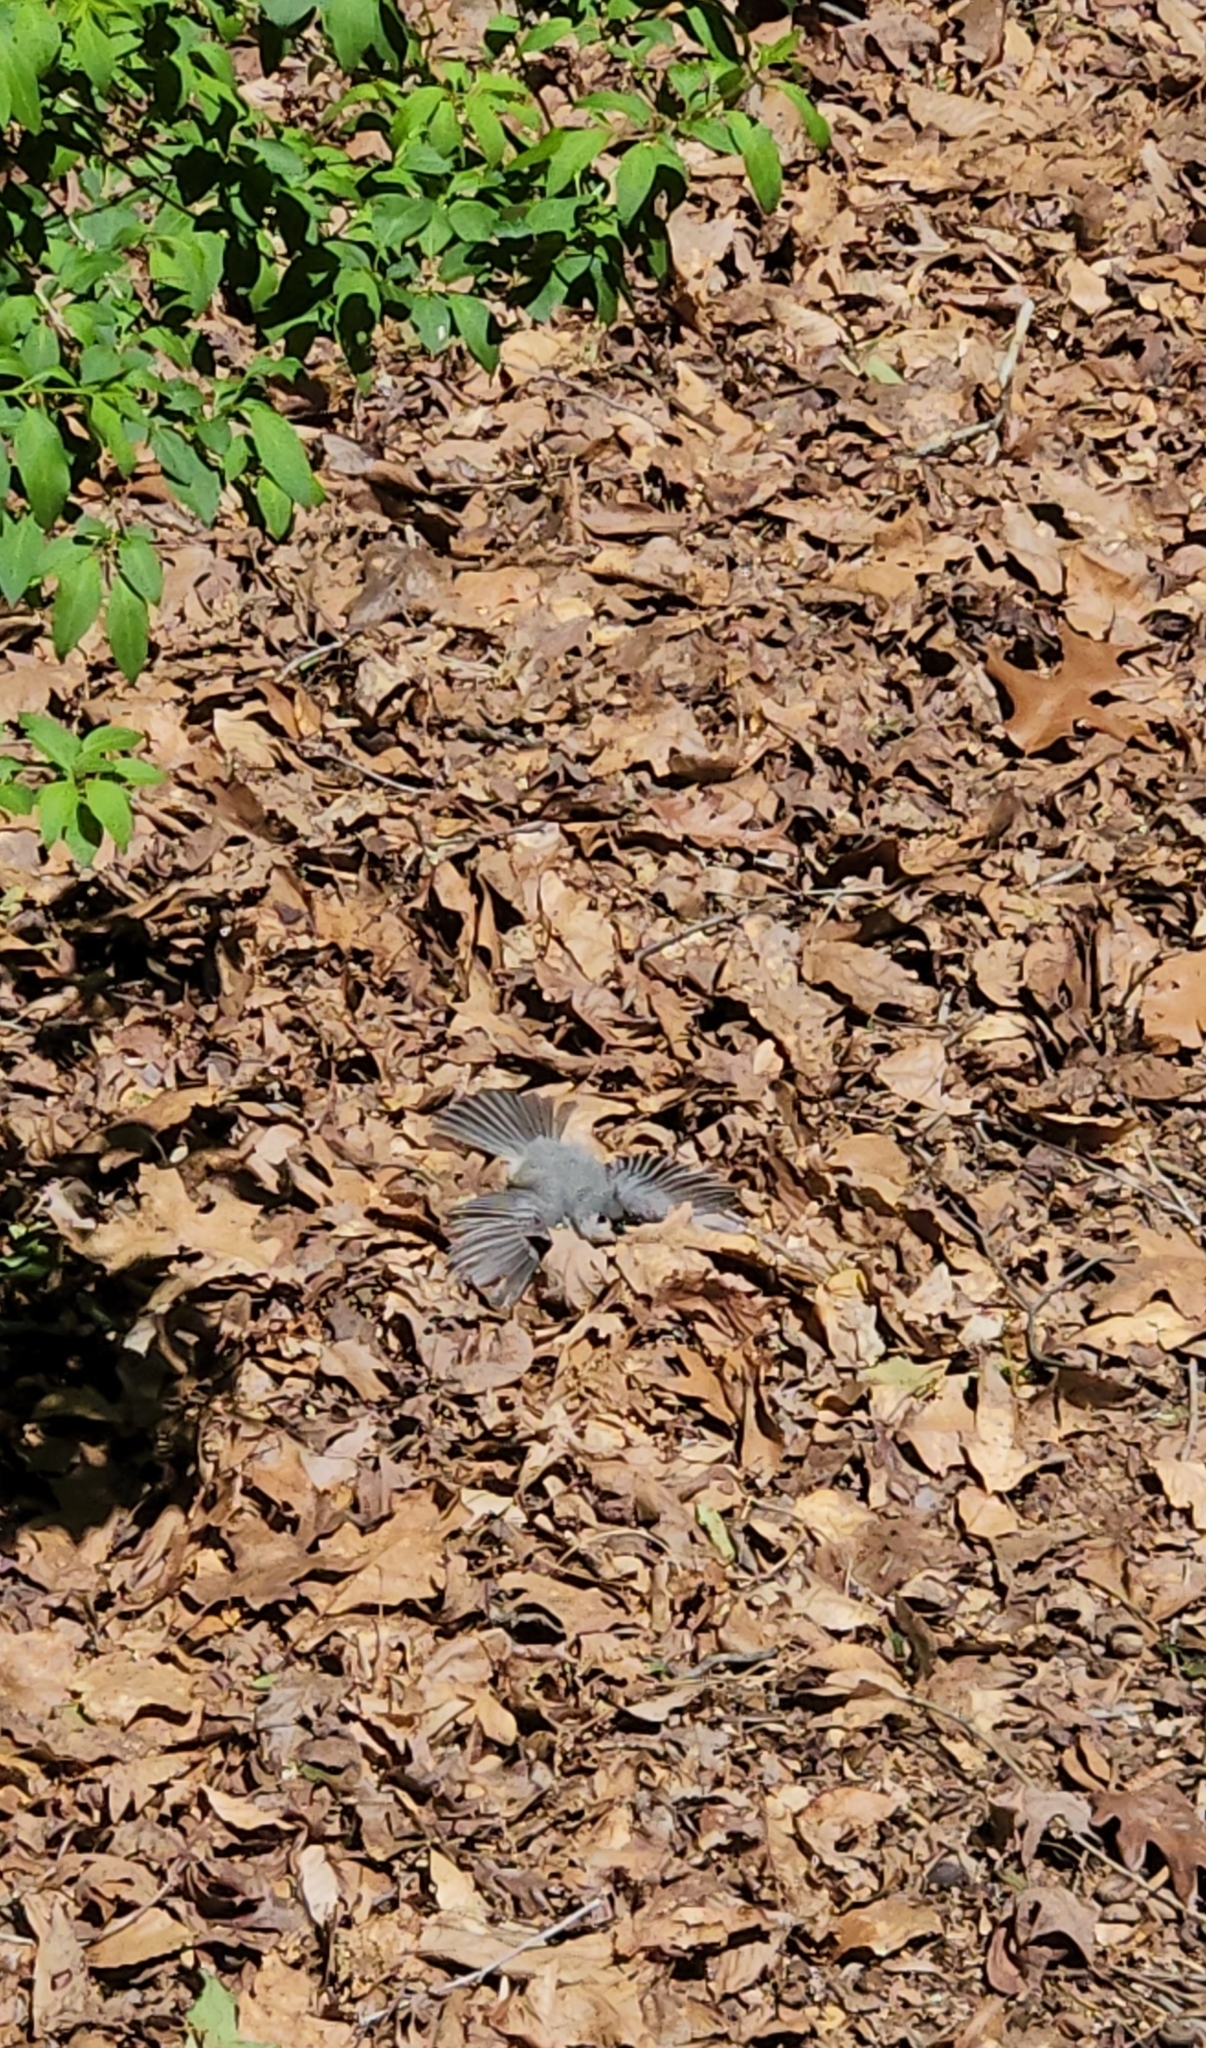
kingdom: Animalia
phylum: Chordata
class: Aves
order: Passeriformes
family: Paridae
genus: Baeolophus
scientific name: Baeolophus bicolor
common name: Tufted titmouse
